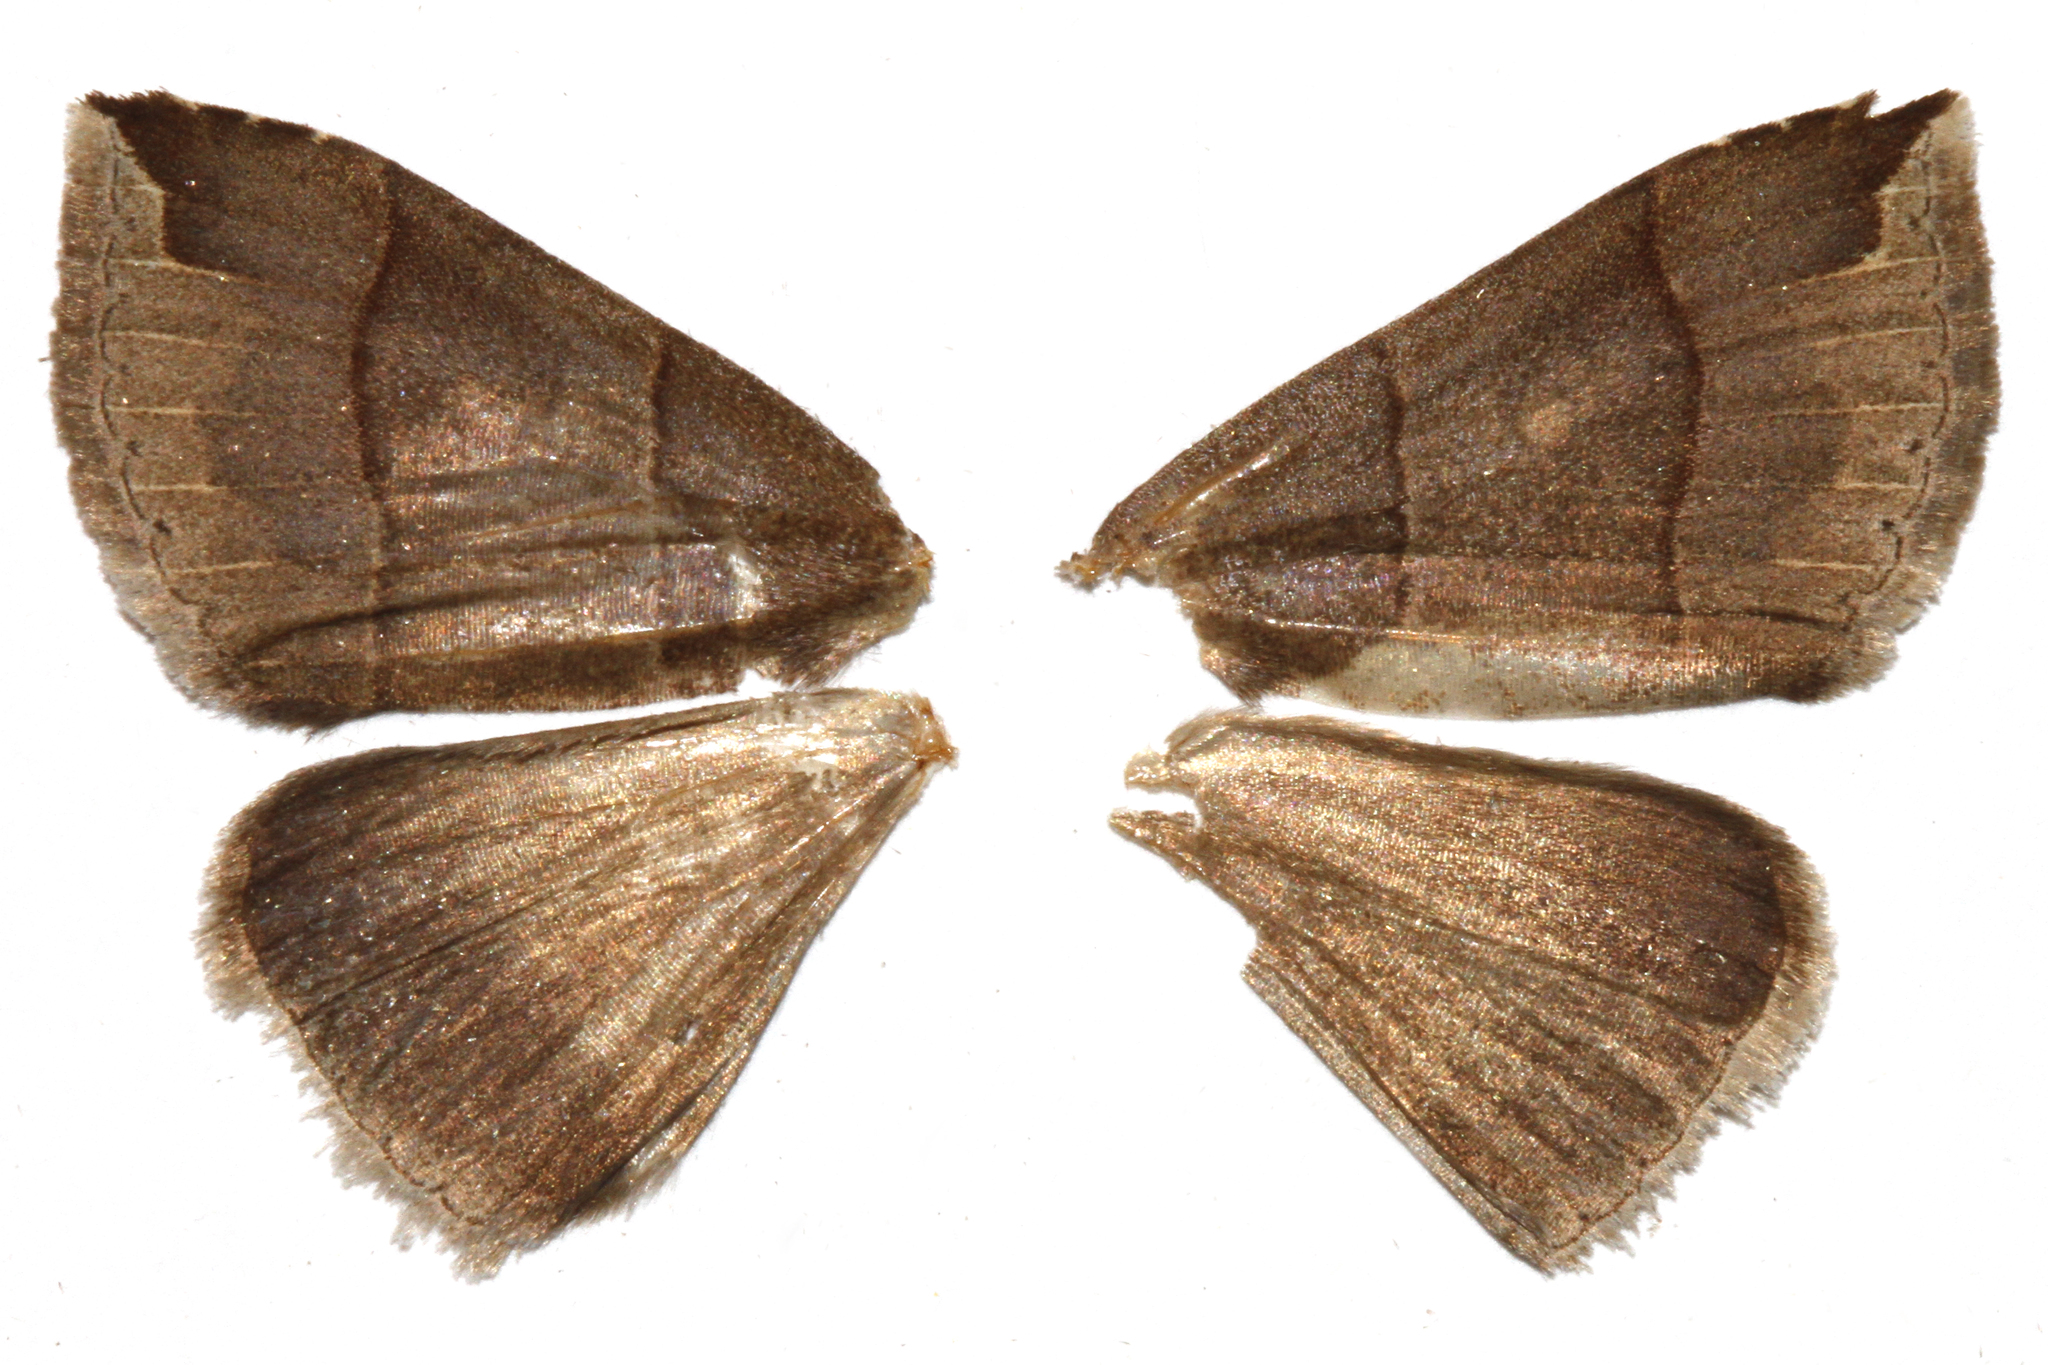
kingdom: Animalia
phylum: Arthropoda
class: Insecta
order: Lepidoptera
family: Erebidae
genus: Parallelia
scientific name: Parallelia bistriaris
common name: Maple looper moth
